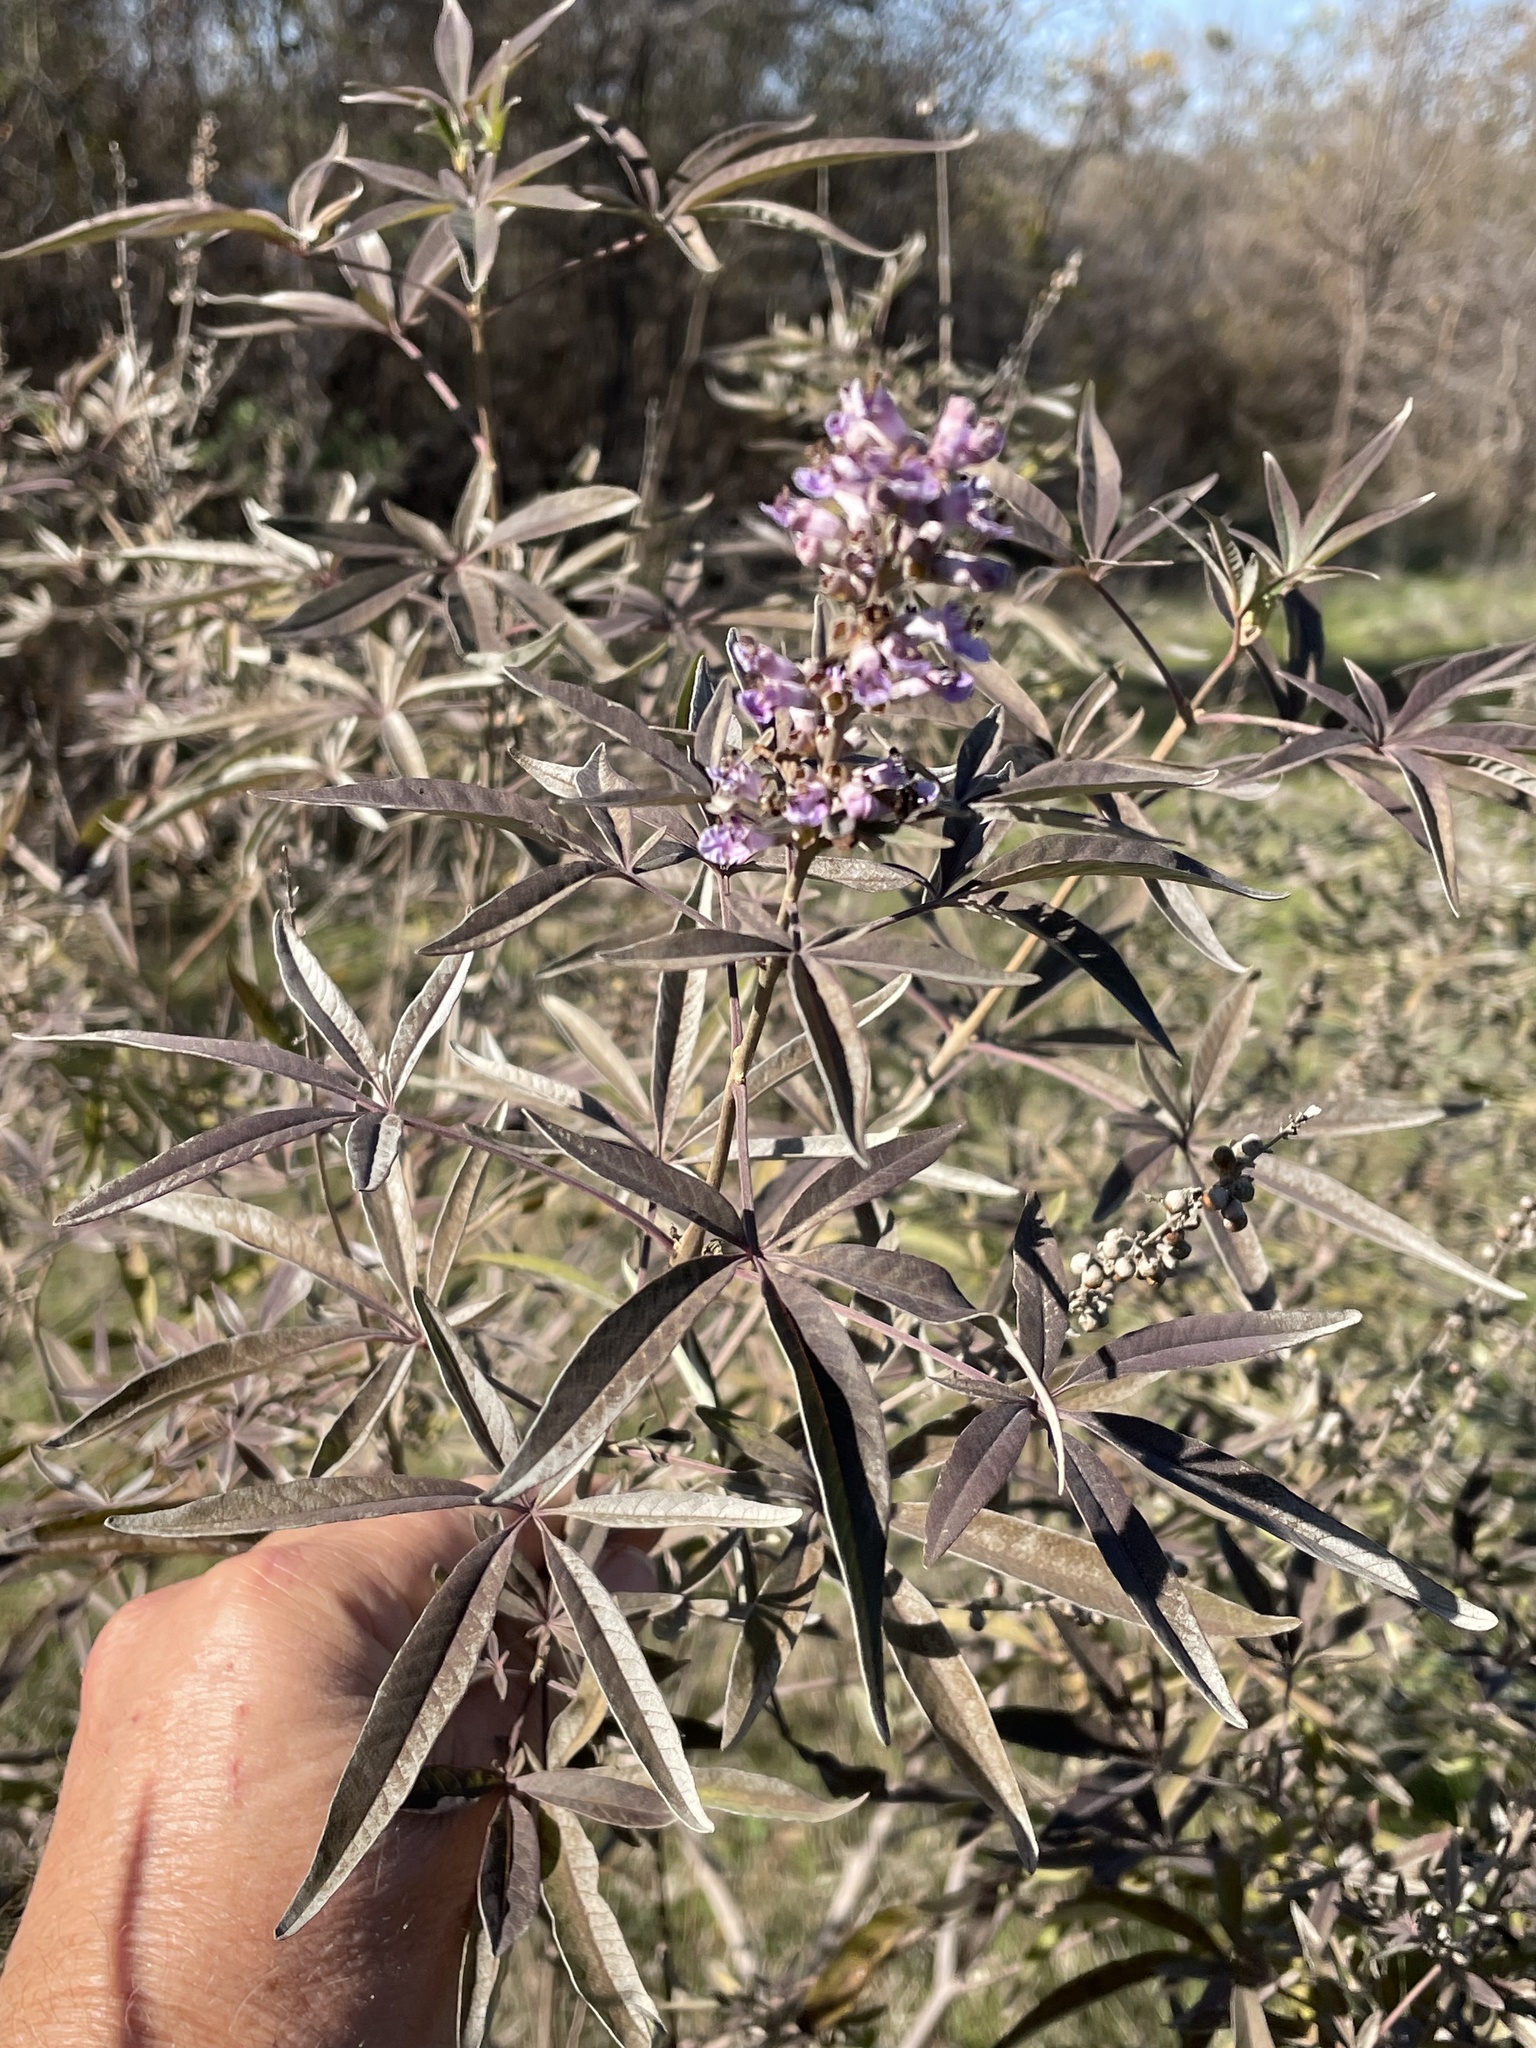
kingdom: Plantae
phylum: Tracheophyta
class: Magnoliopsida
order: Lamiales
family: Lamiaceae
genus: Vitex
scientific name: Vitex agnus-castus
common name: Chasteberry
